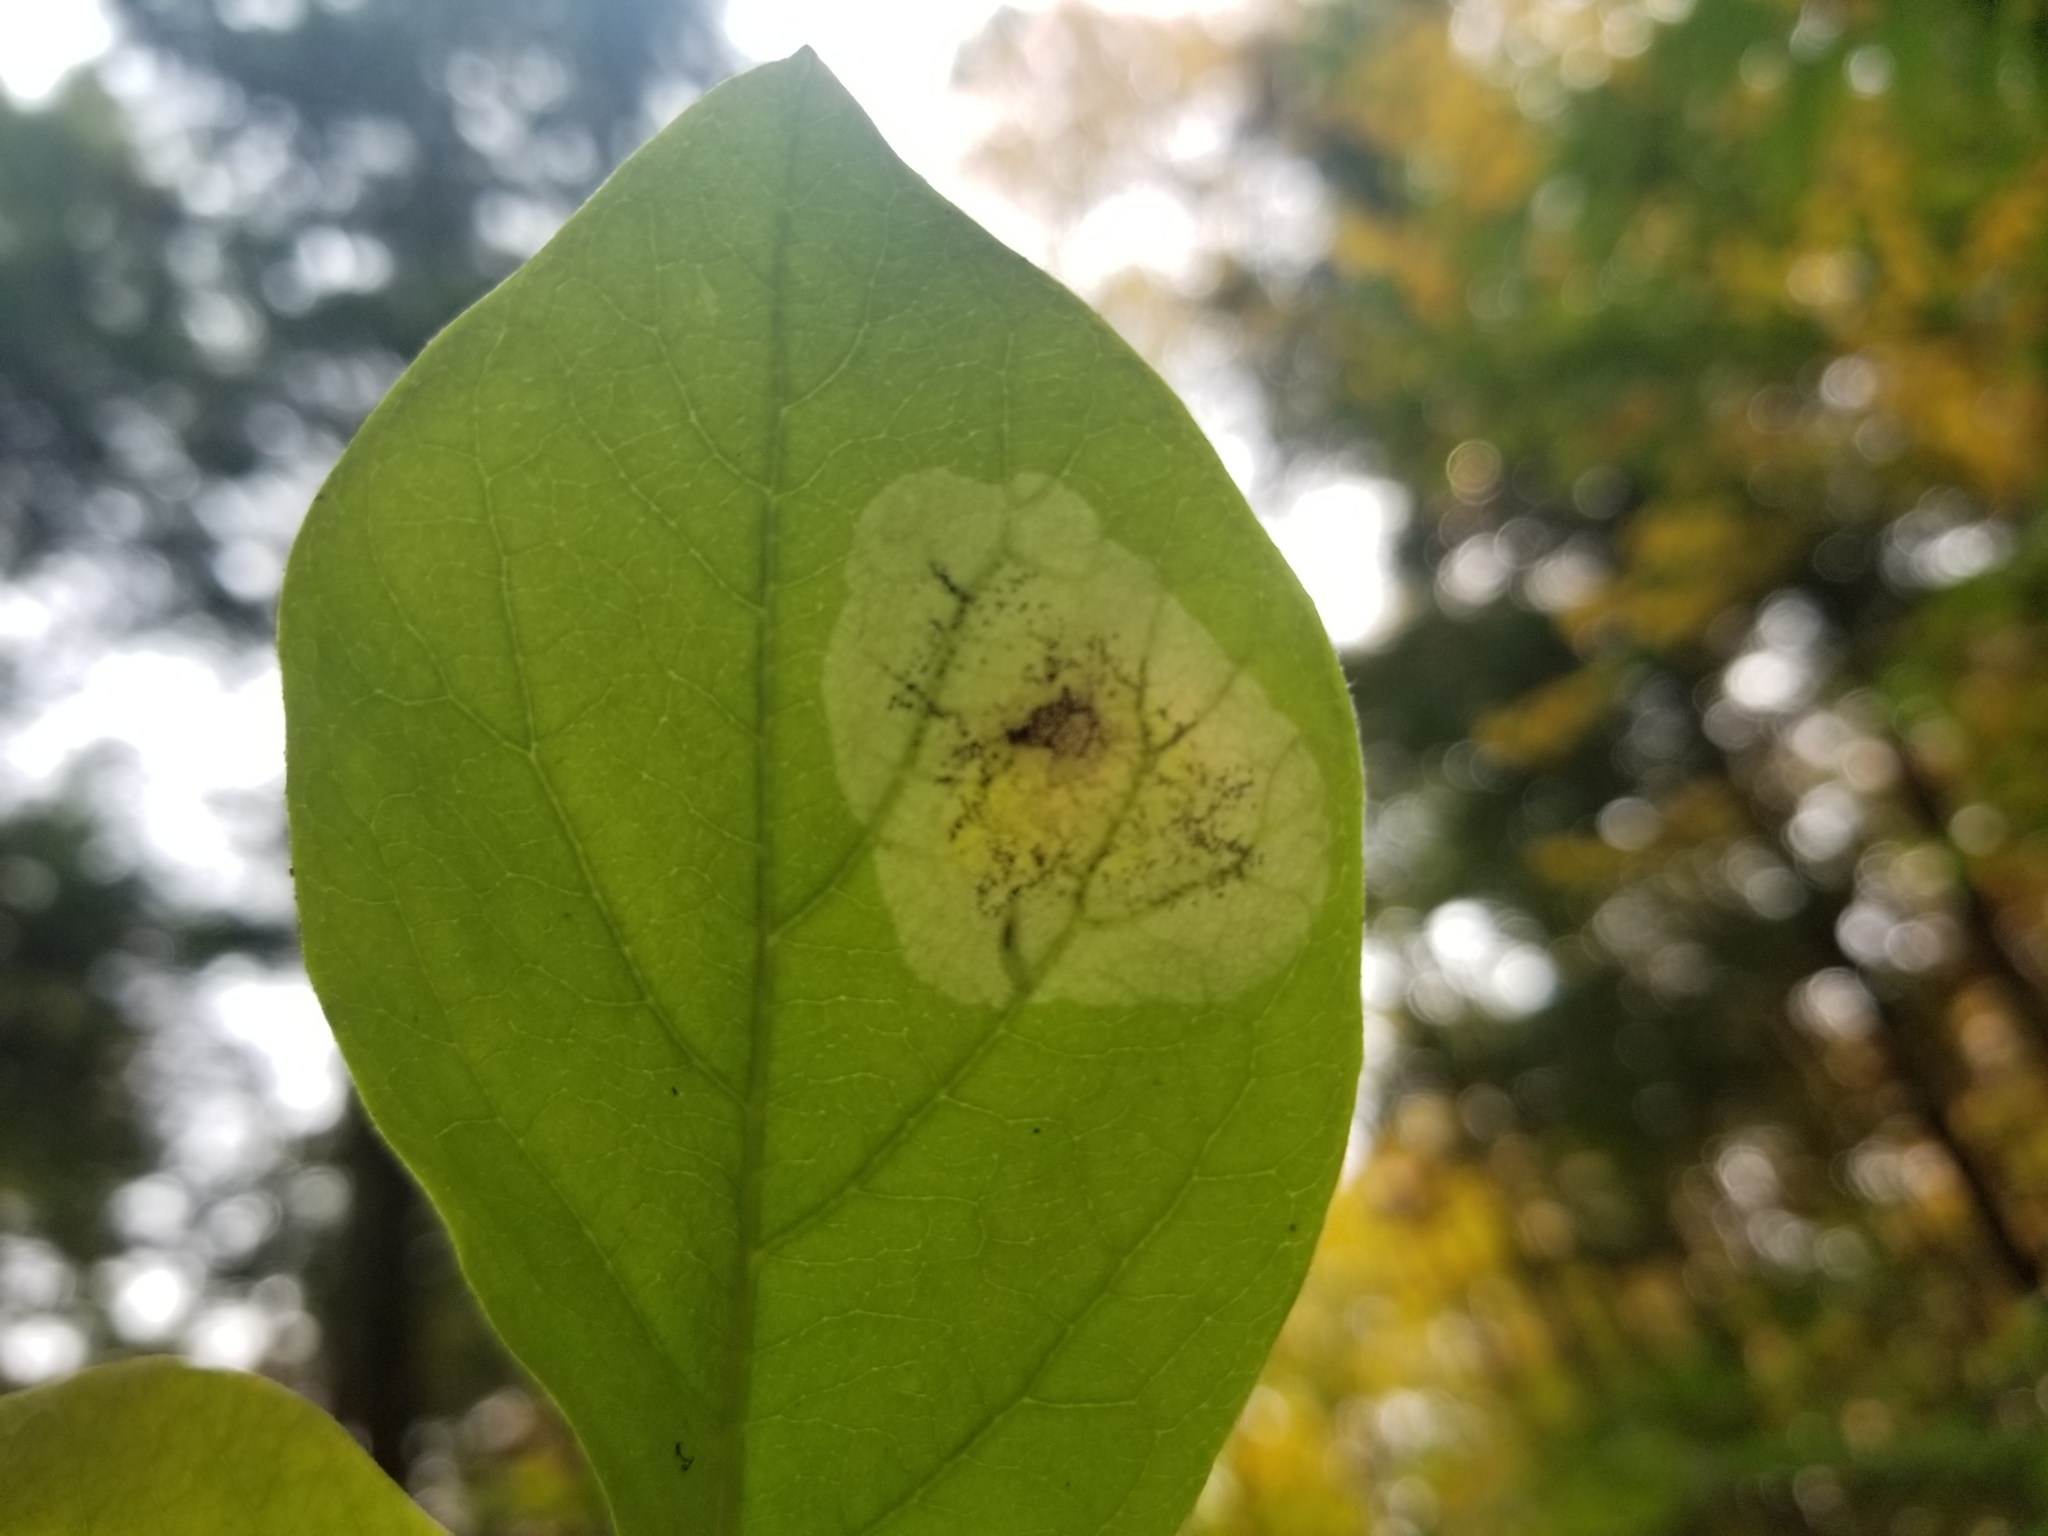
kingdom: Animalia
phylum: Arthropoda
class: Insecta
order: Lepidoptera
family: Gracillariidae
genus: Leucanthiza
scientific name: Leucanthiza dircella
